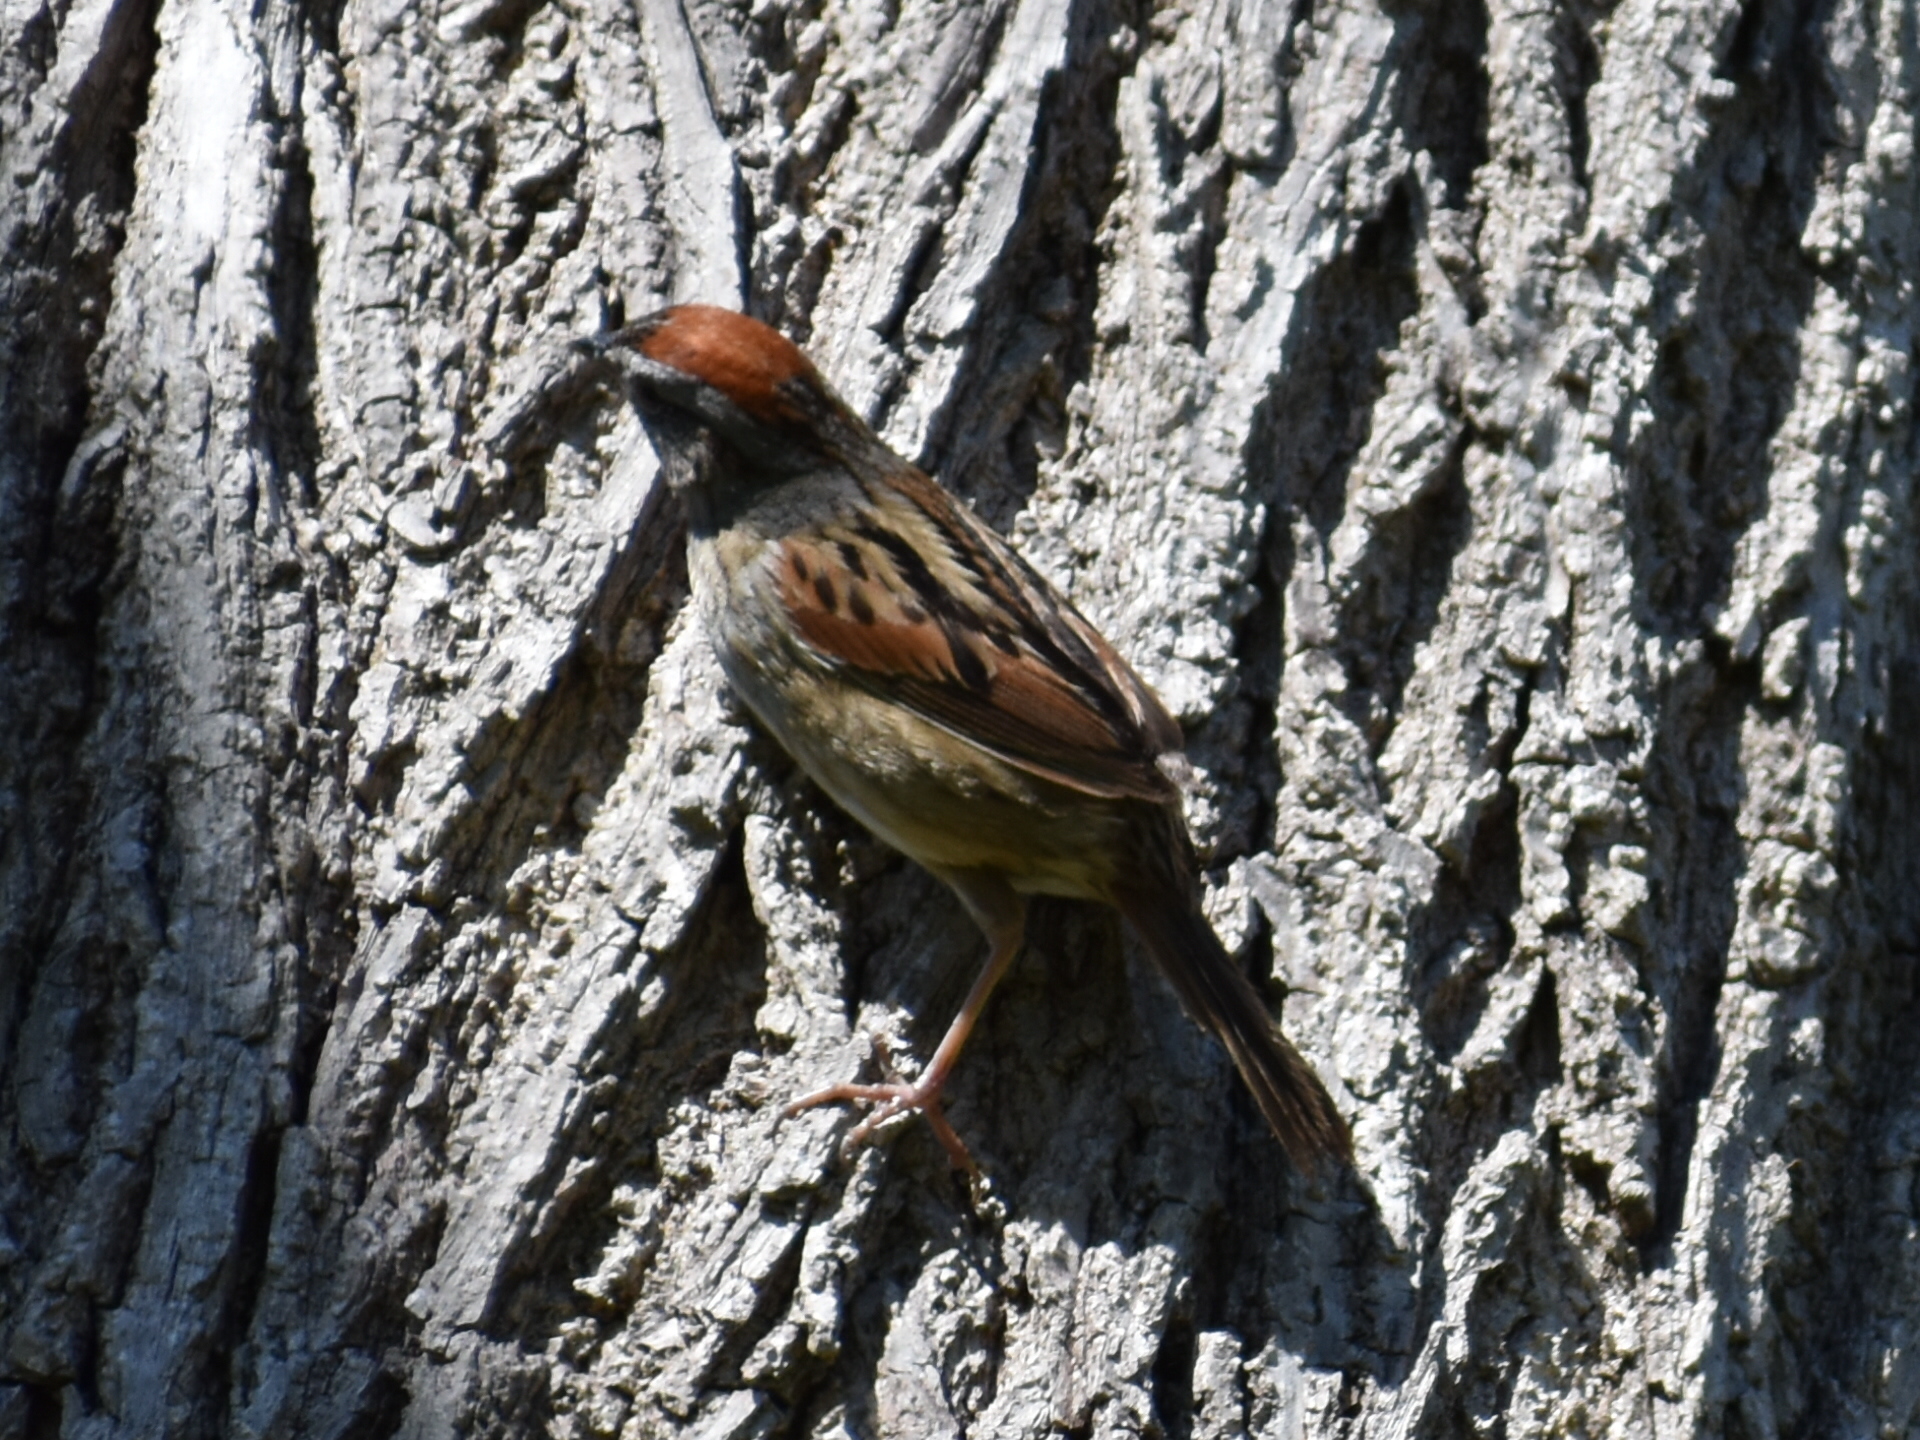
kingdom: Animalia
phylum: Chordata
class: Aves
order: Passeriformes
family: Passerellidae
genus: Melospiza
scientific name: Melospiza georgiana
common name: Swamp sparrow
